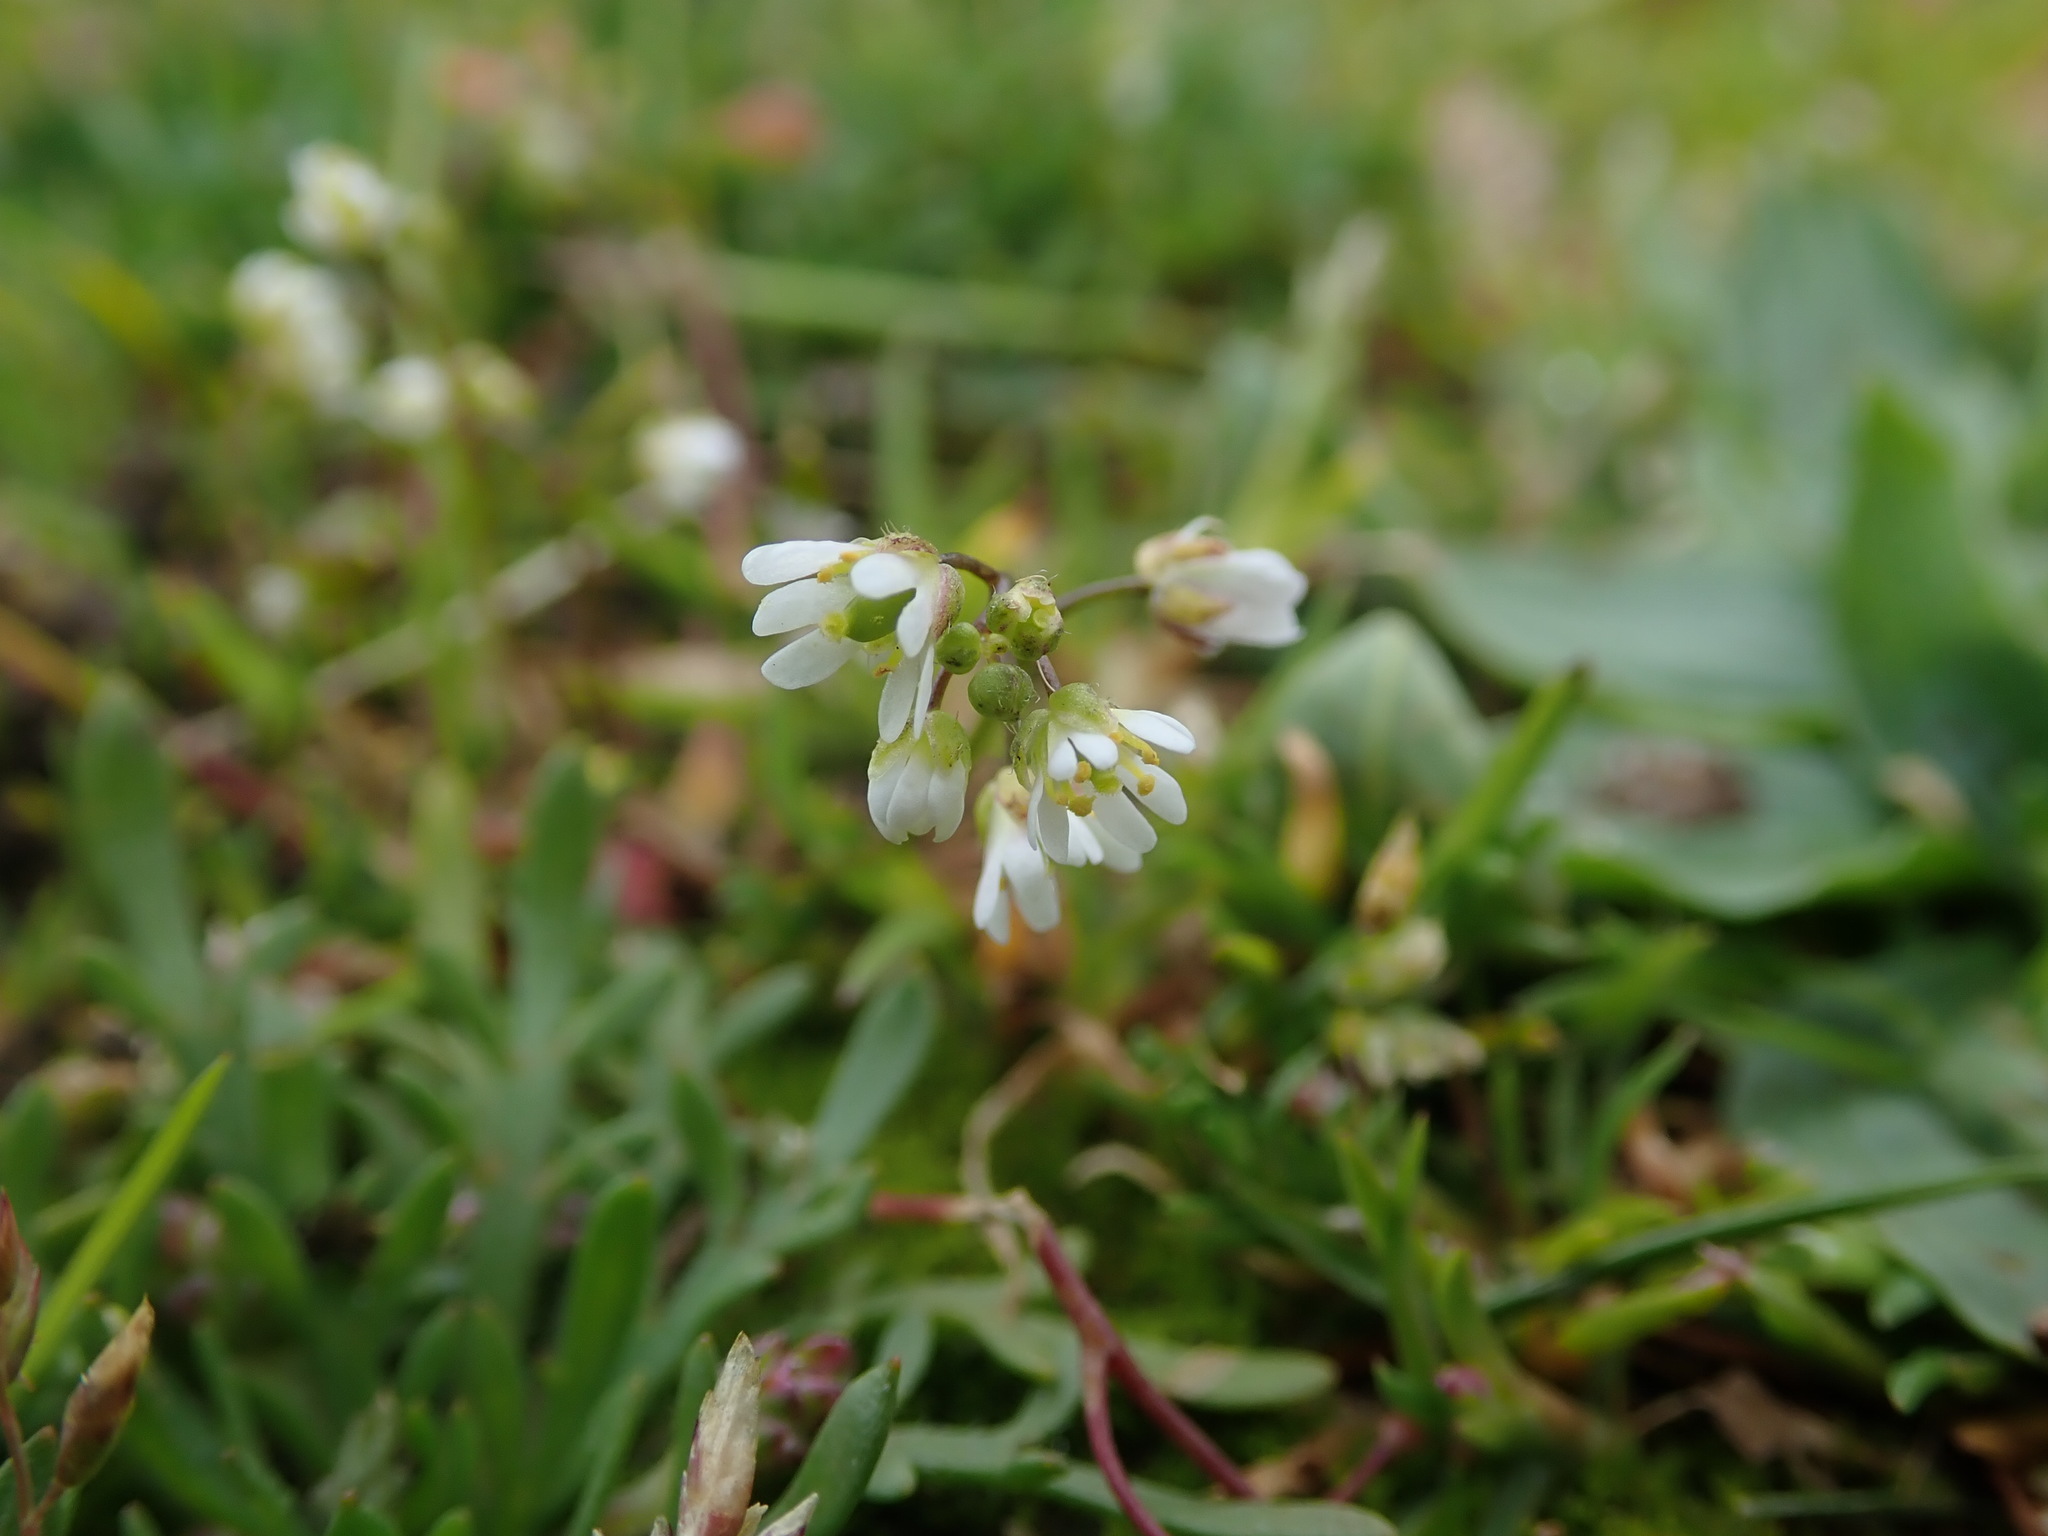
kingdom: Plantae
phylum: Tracheophyta
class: Magnoliopsida
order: Brassicales
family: Brassicaceae
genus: Draba
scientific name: Draba verna
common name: Spring draba
